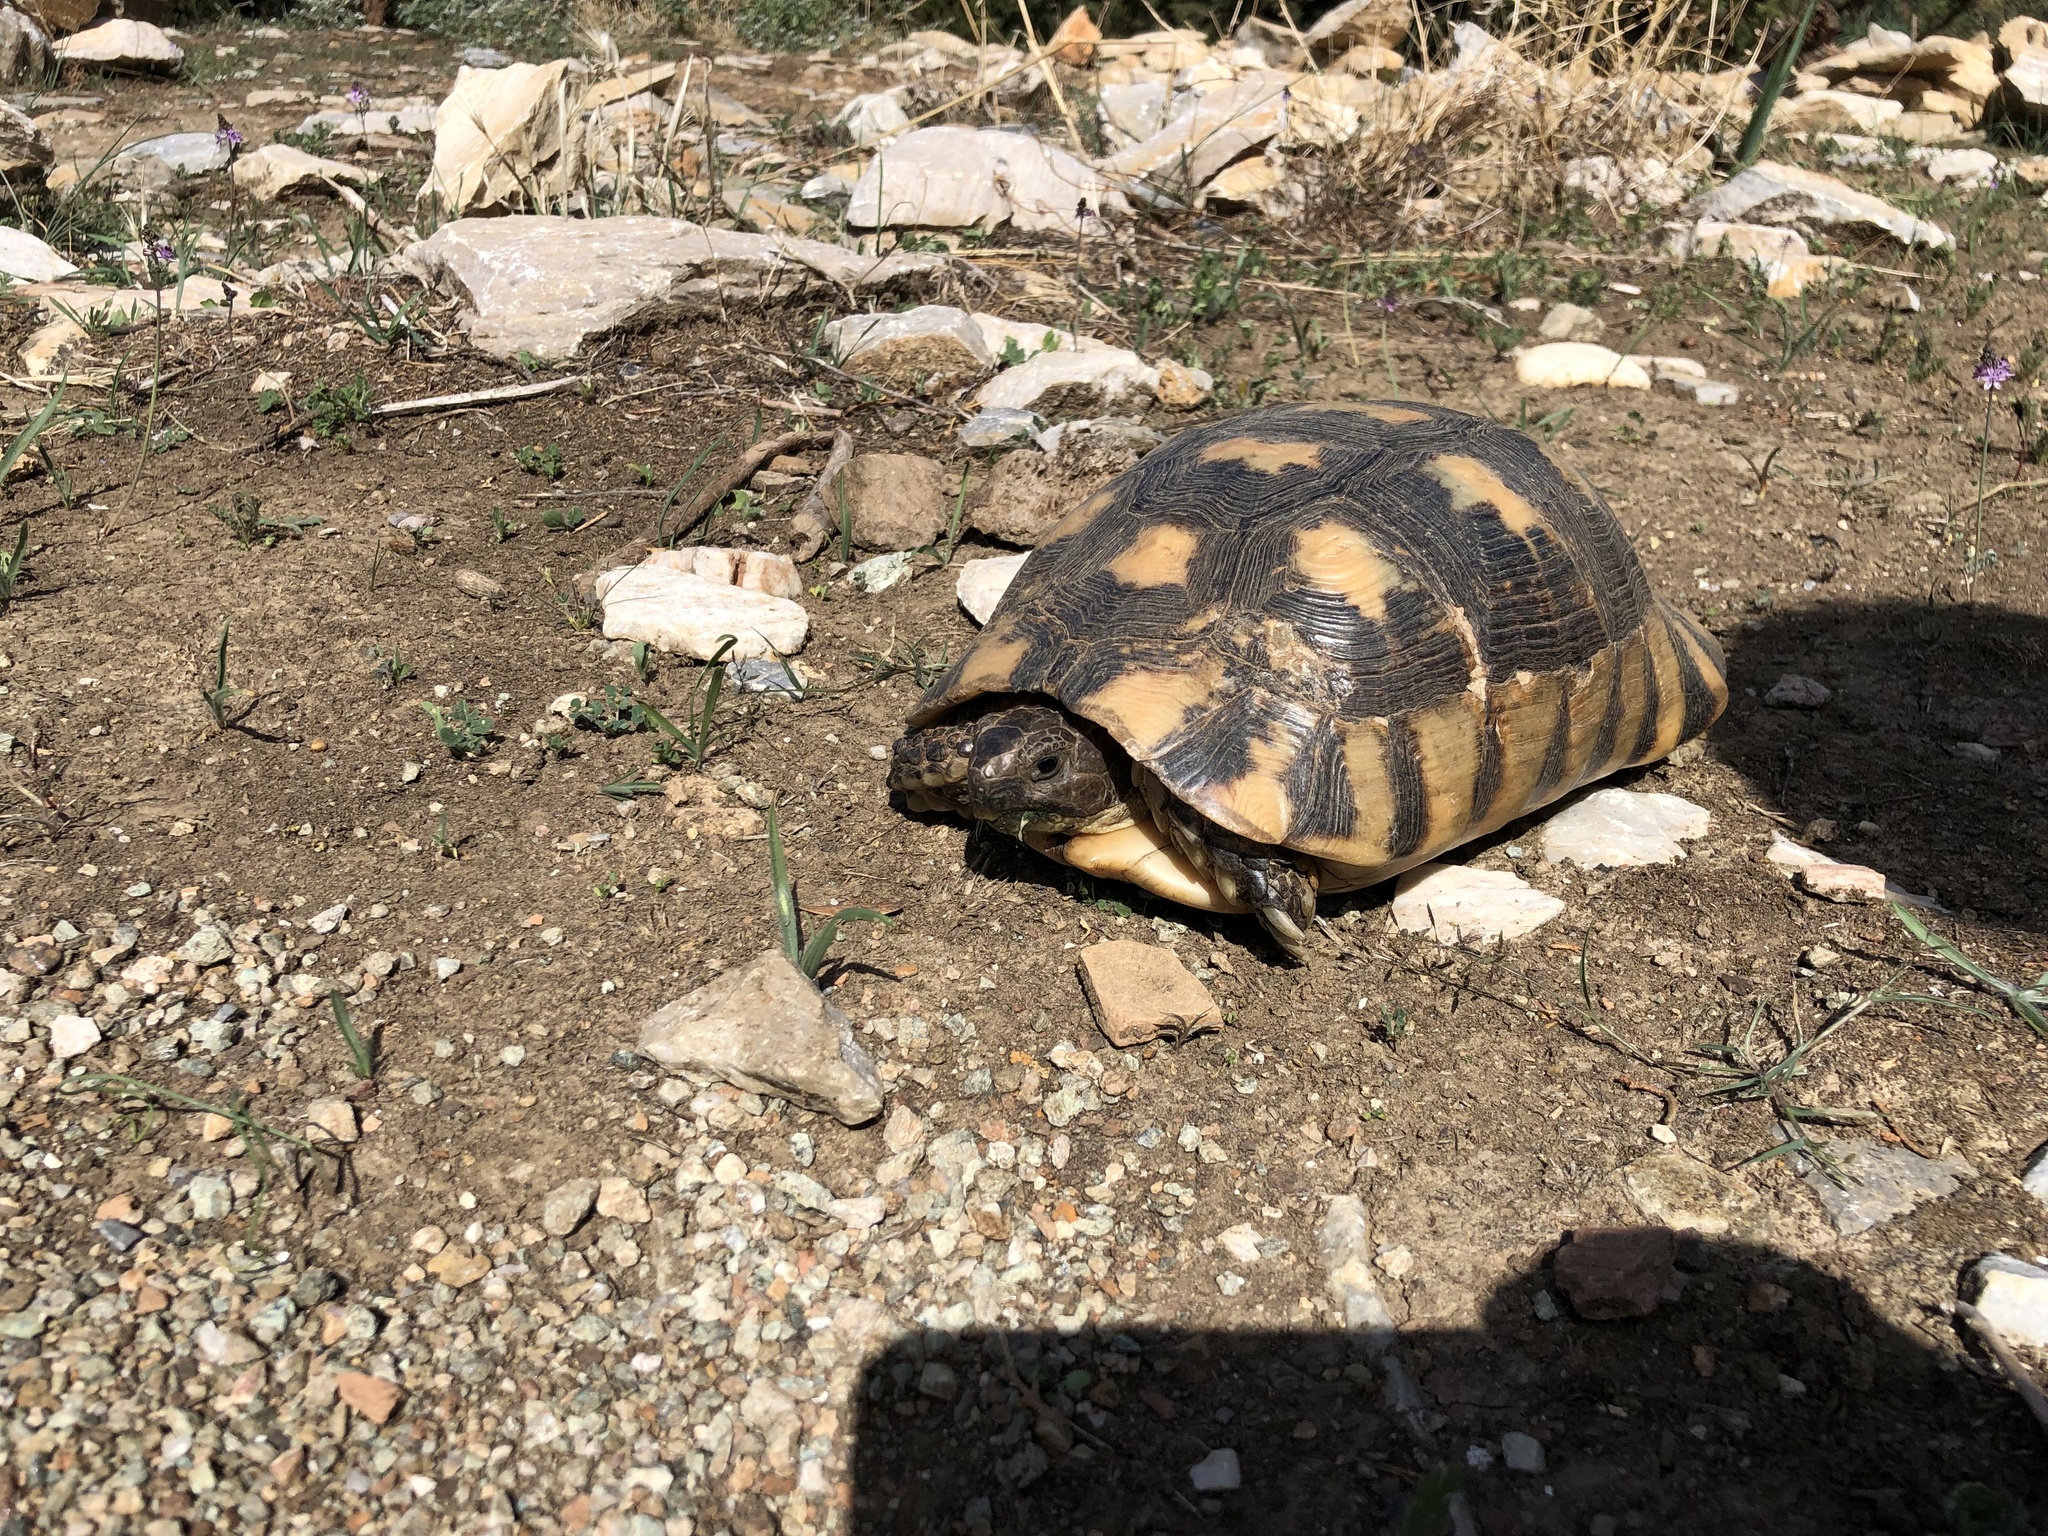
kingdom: Animalia
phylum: Chordata
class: Testudines
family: Testudinidae
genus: Testudo
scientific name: Testudo marginata
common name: Marginated tortoise
